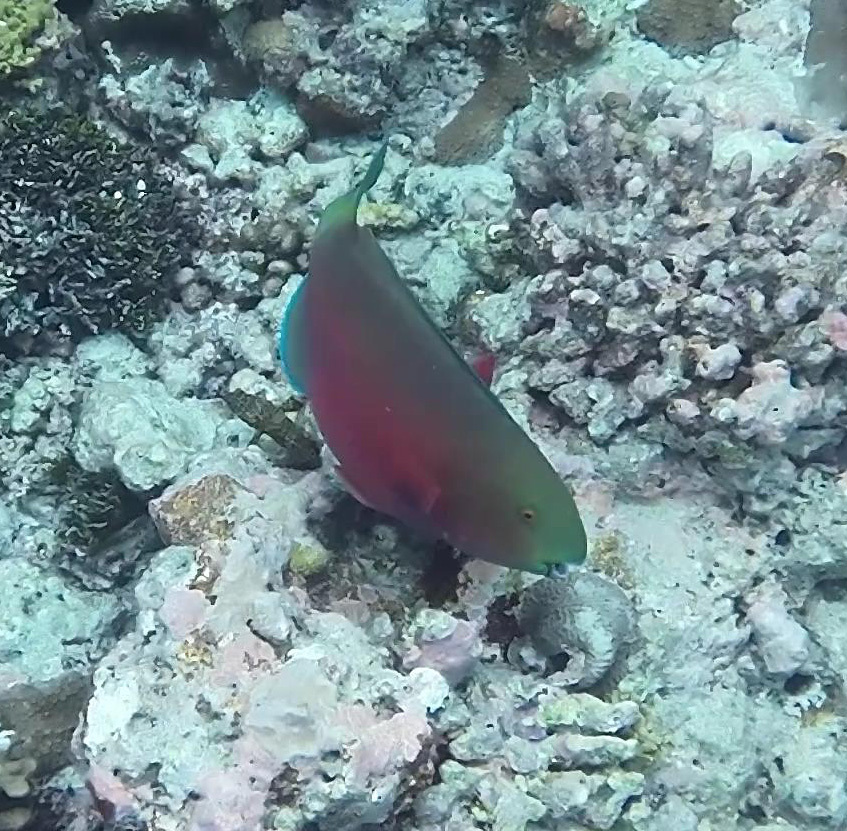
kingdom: Animalia
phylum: Chordata
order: Perciformes
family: Scaridae
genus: Chlorurus
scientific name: Chlorurus strongylocephalus
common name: Steephead parrotfish
